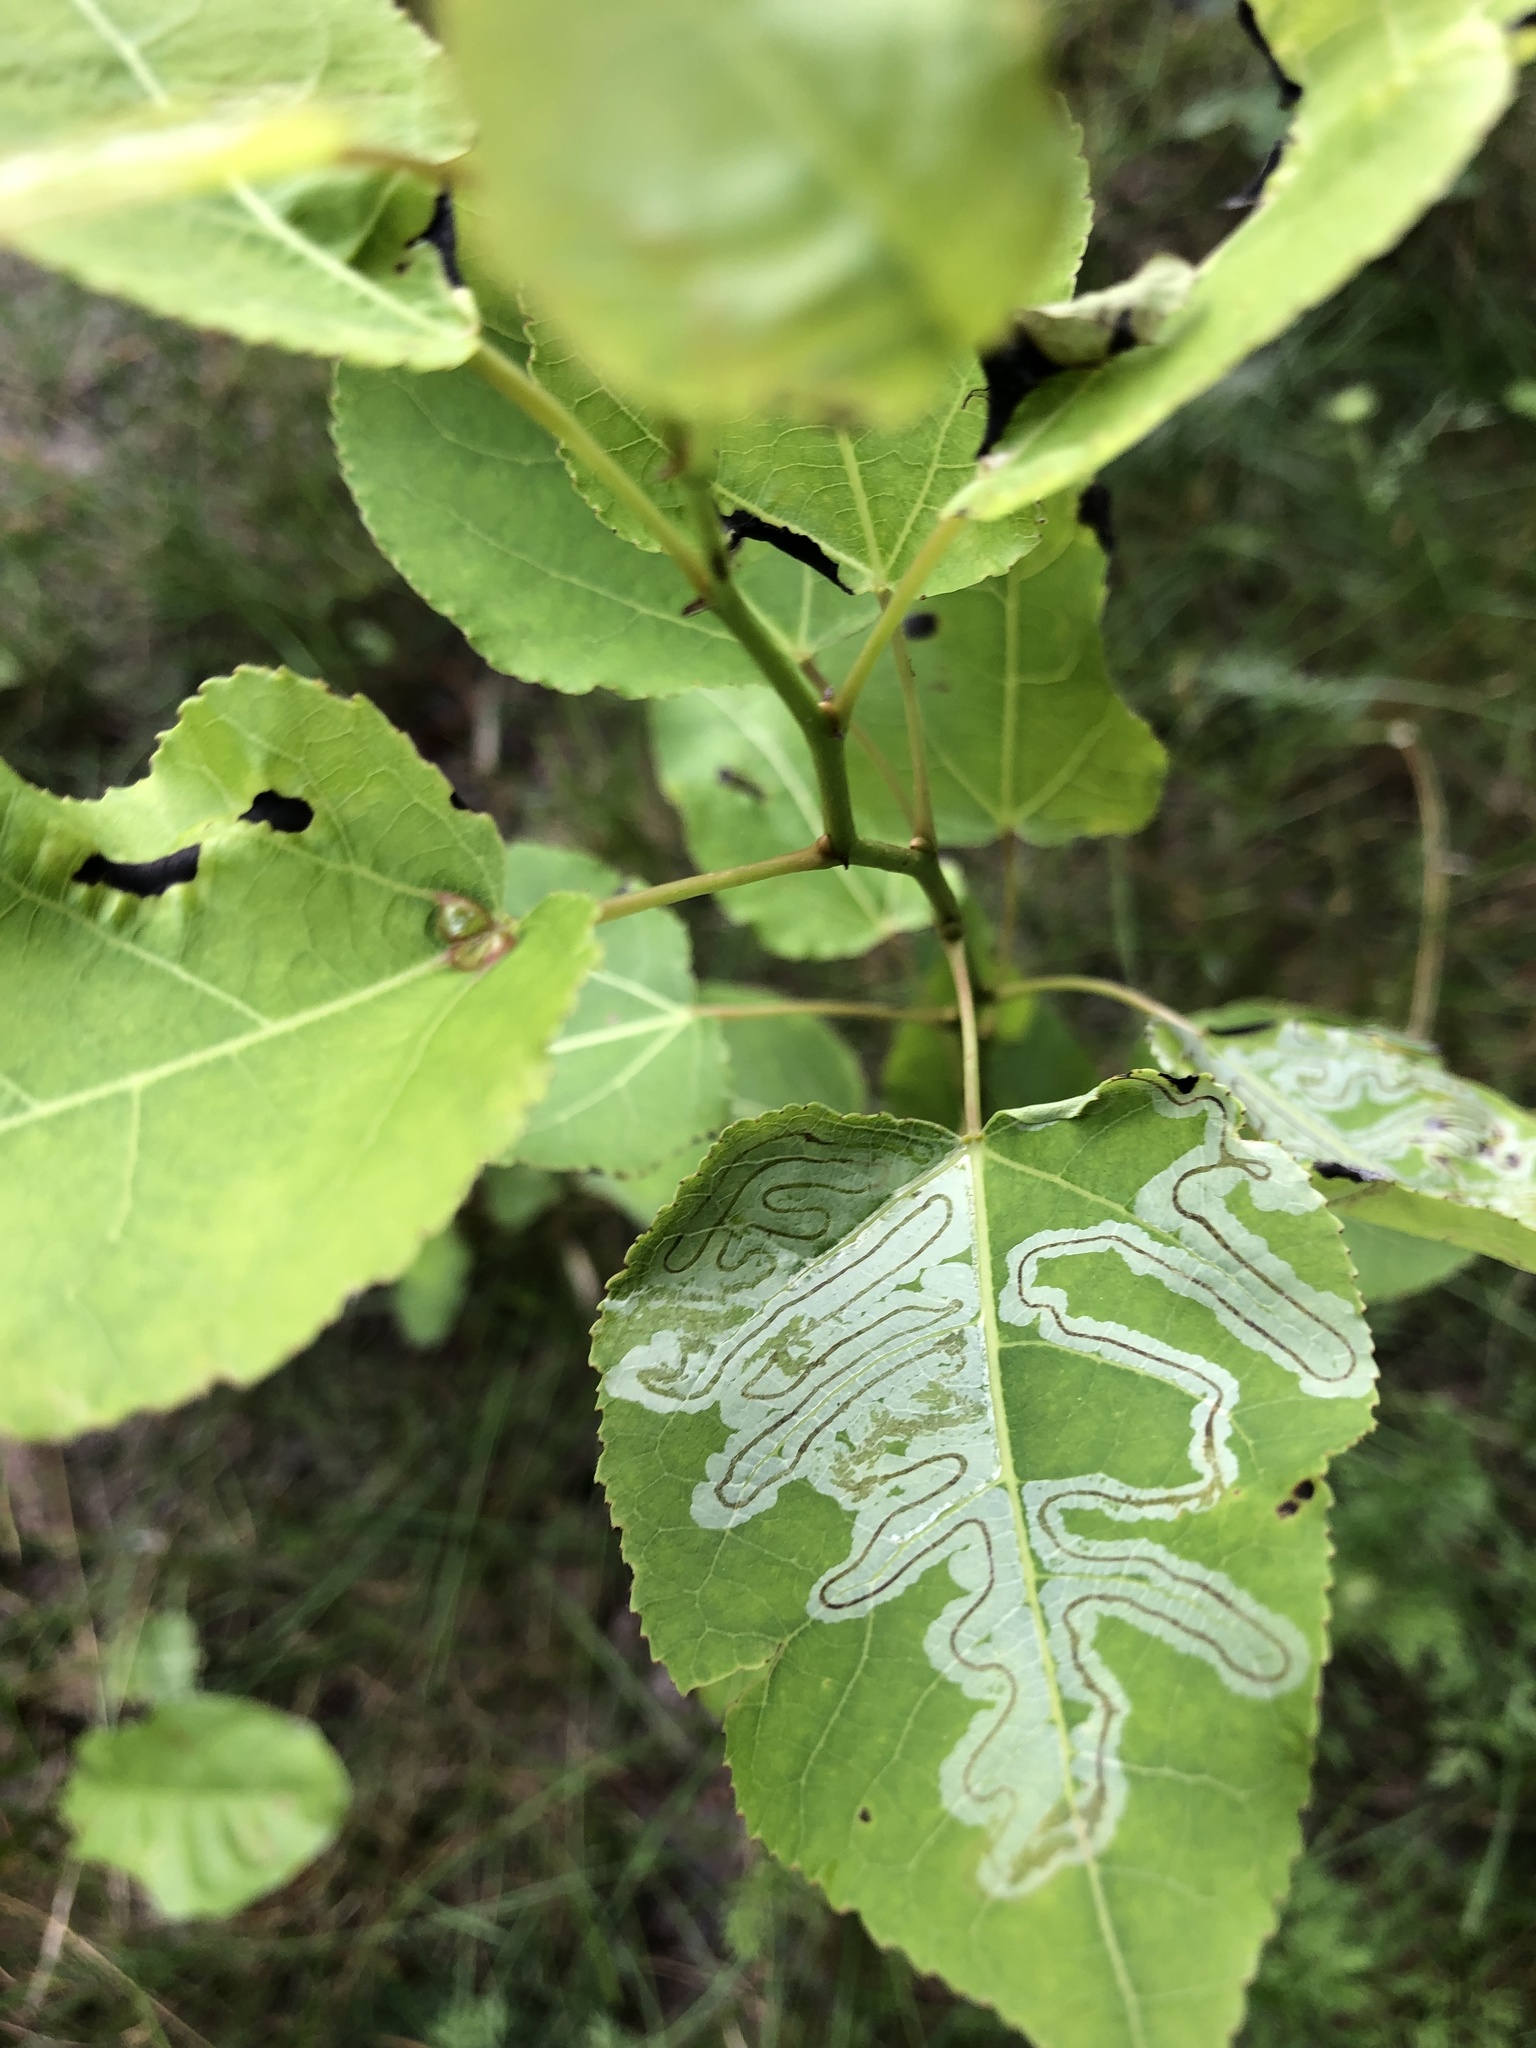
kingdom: Animalia
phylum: Arthropoda
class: Insecta
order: Lepidoptera
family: Gracillariidae
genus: Phyllocnistis
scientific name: Phyllocnistis populiella
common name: Aspen serpentine leafminer moth
